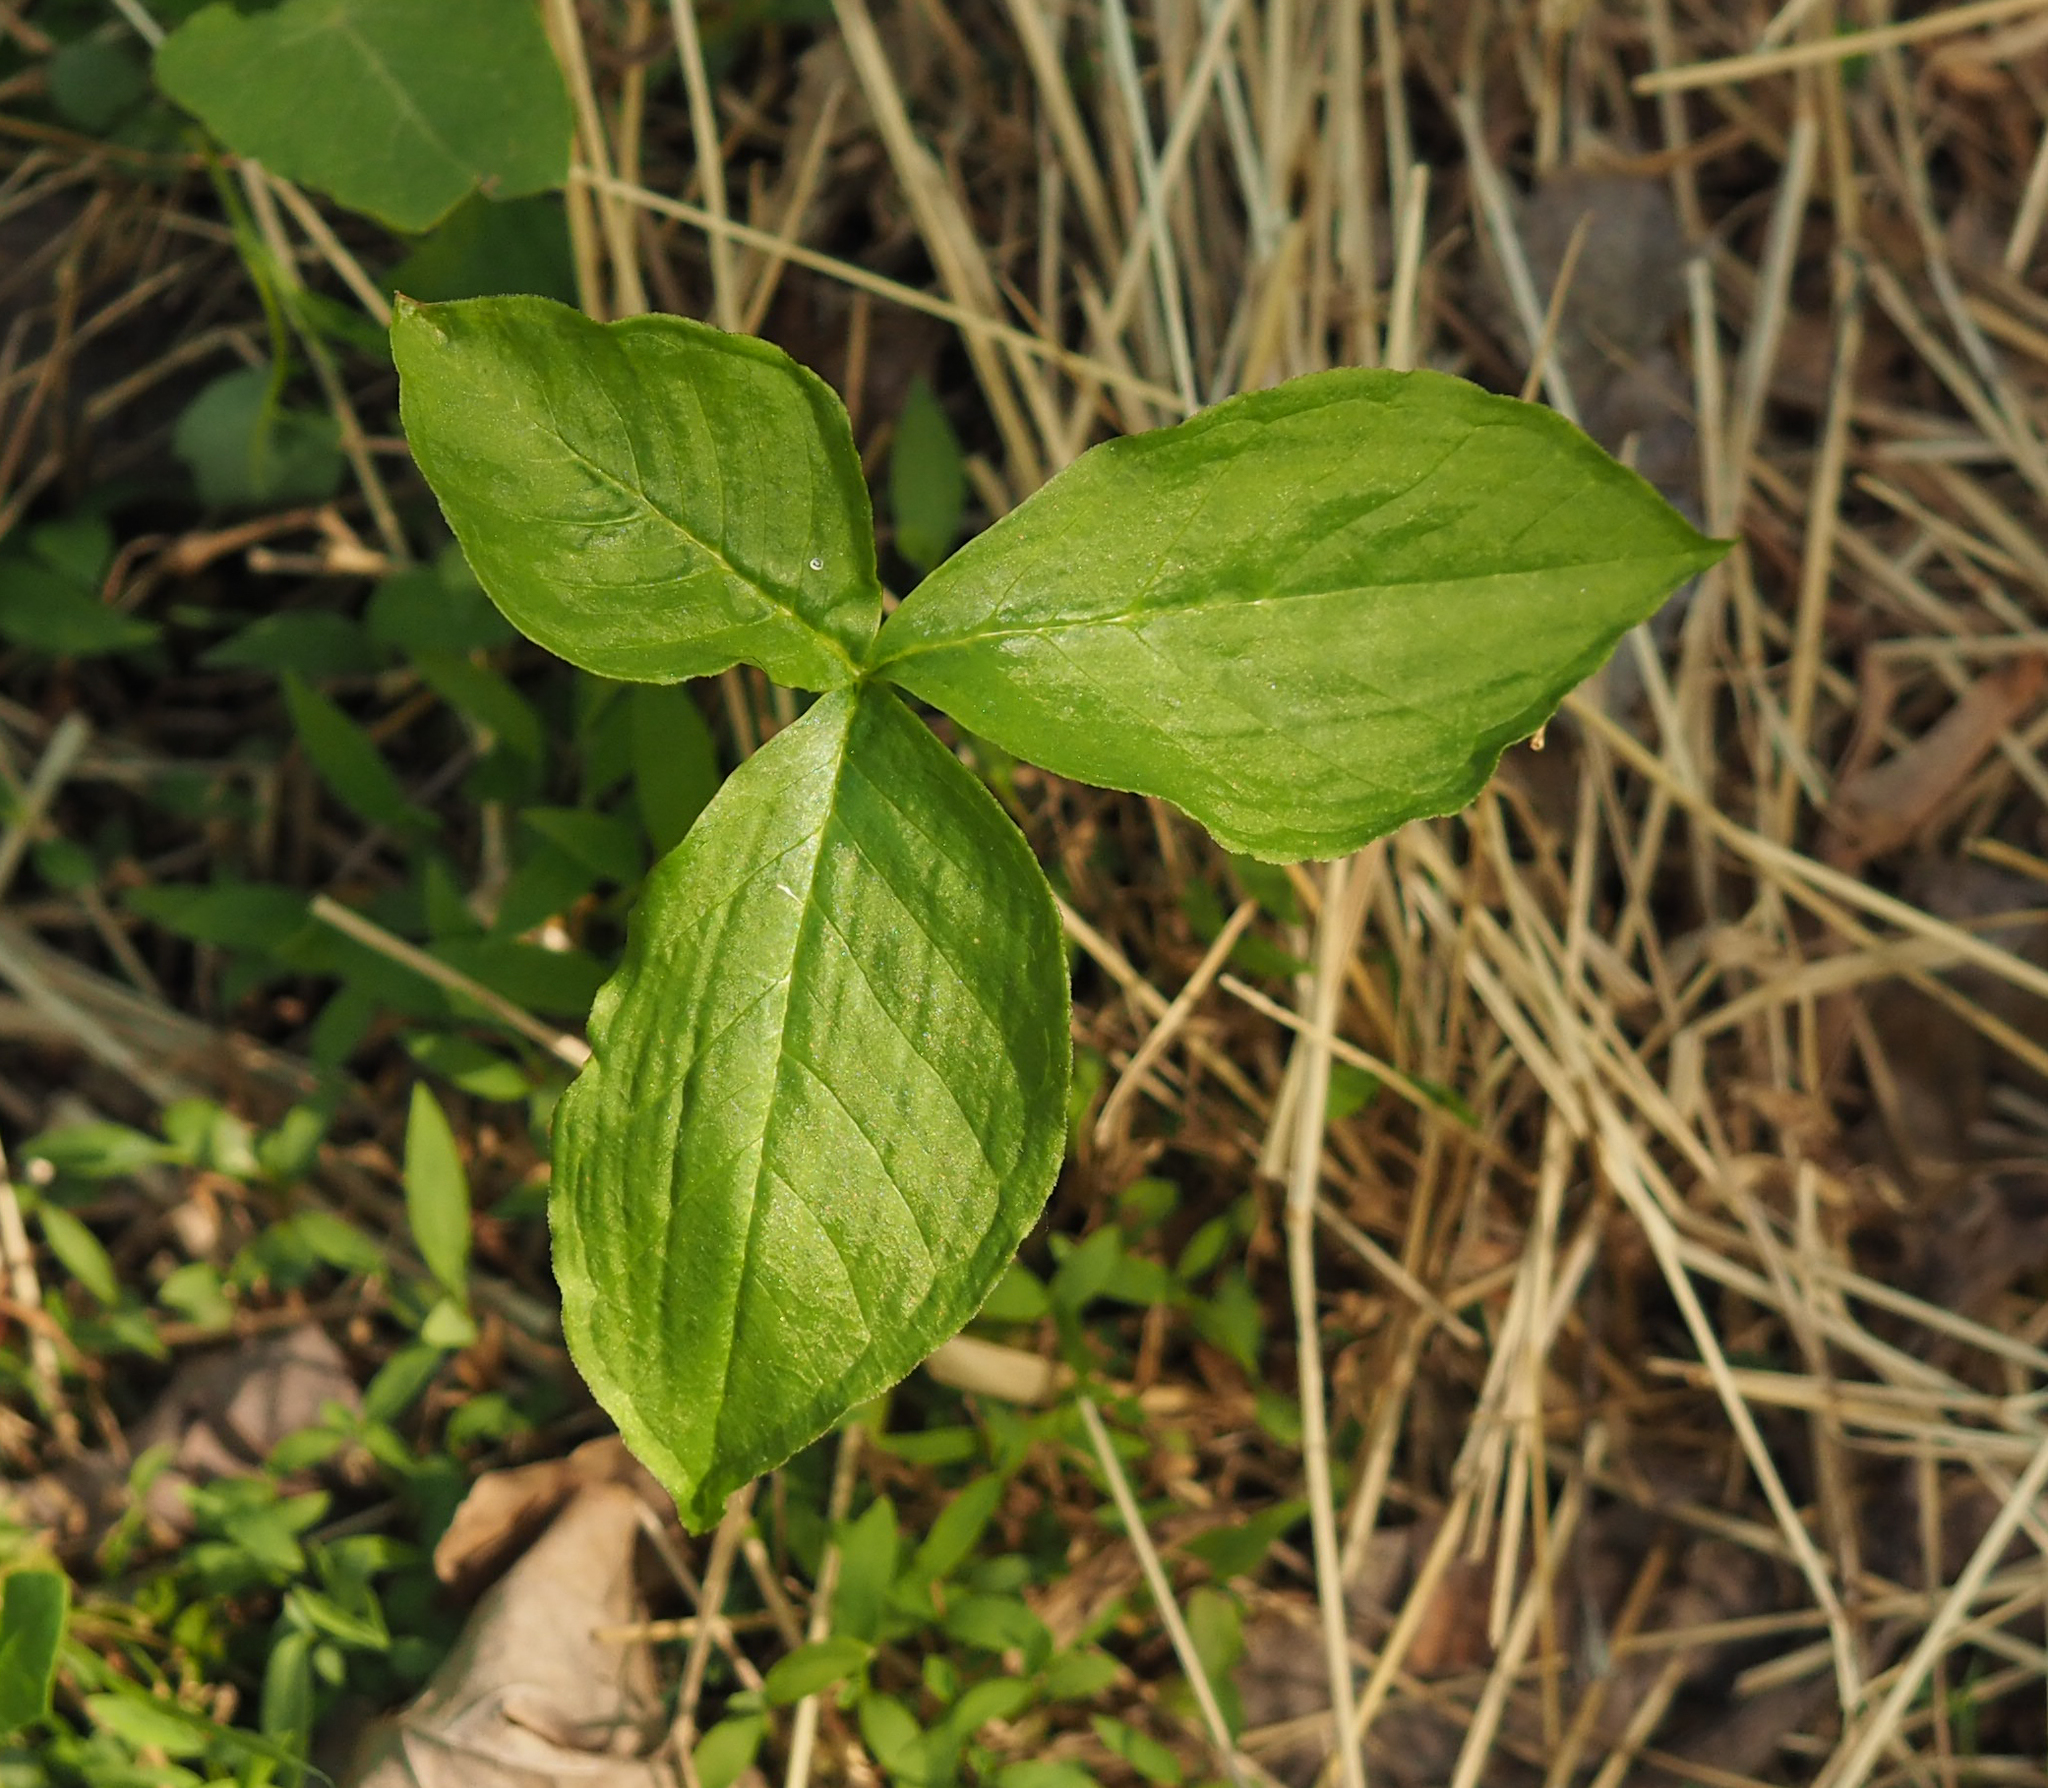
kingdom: Plantae
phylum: Tracheophyta
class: Liliopsida
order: Alismatales
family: Araceae
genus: Arisaema
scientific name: Arisaema triphyllum
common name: Jack-in-the-pulpit
